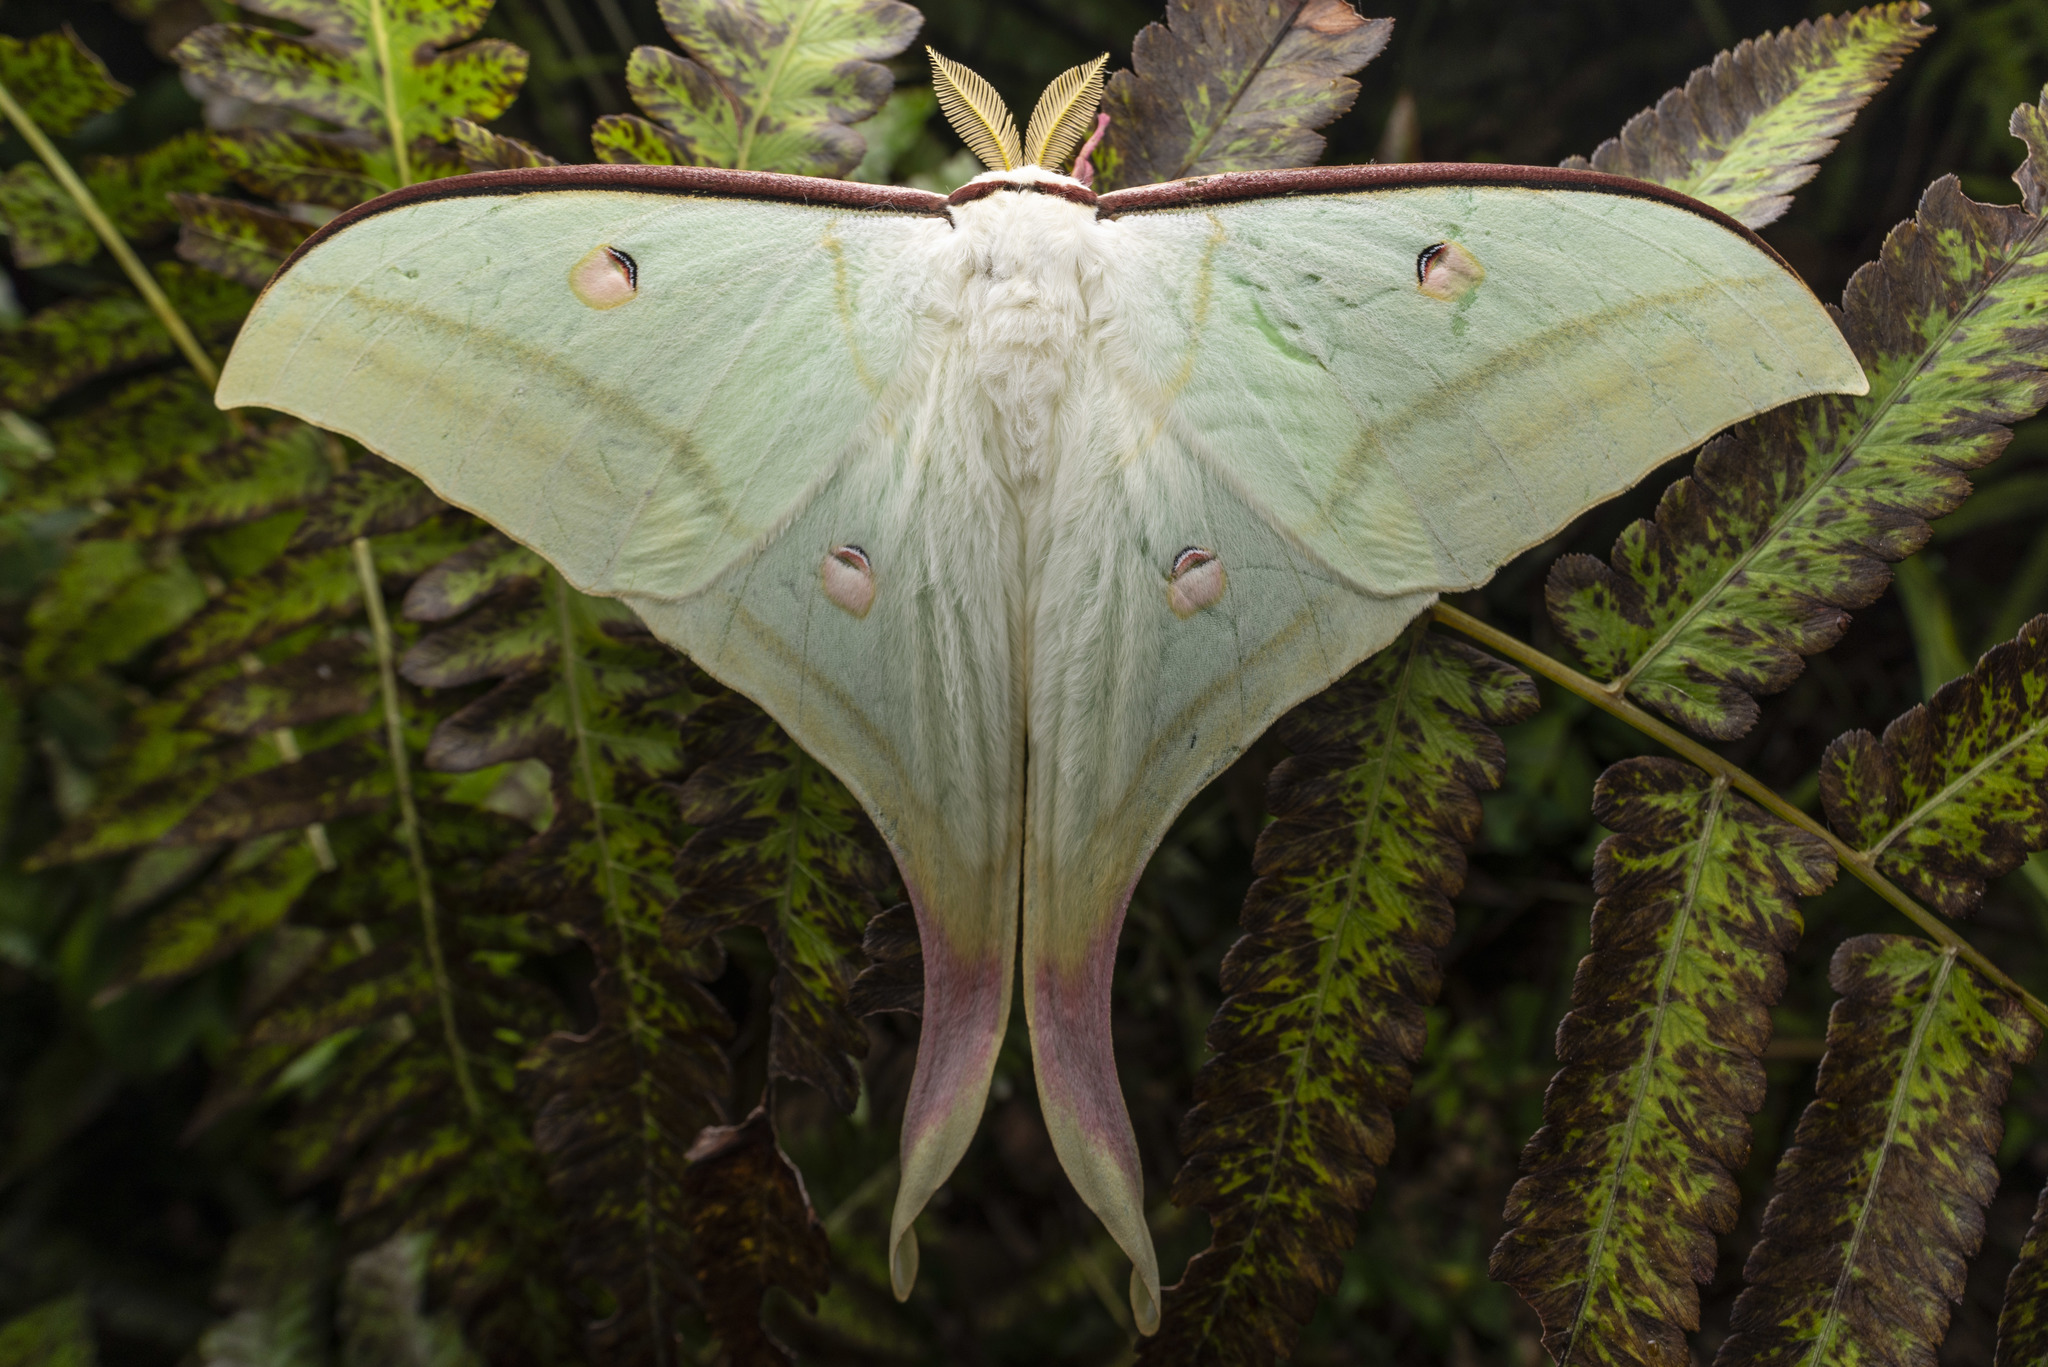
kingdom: Animalia
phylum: Arthropoda
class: Insecta
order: Lepidoptera
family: Saturniidae
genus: Actias
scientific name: Actias ningpoana
